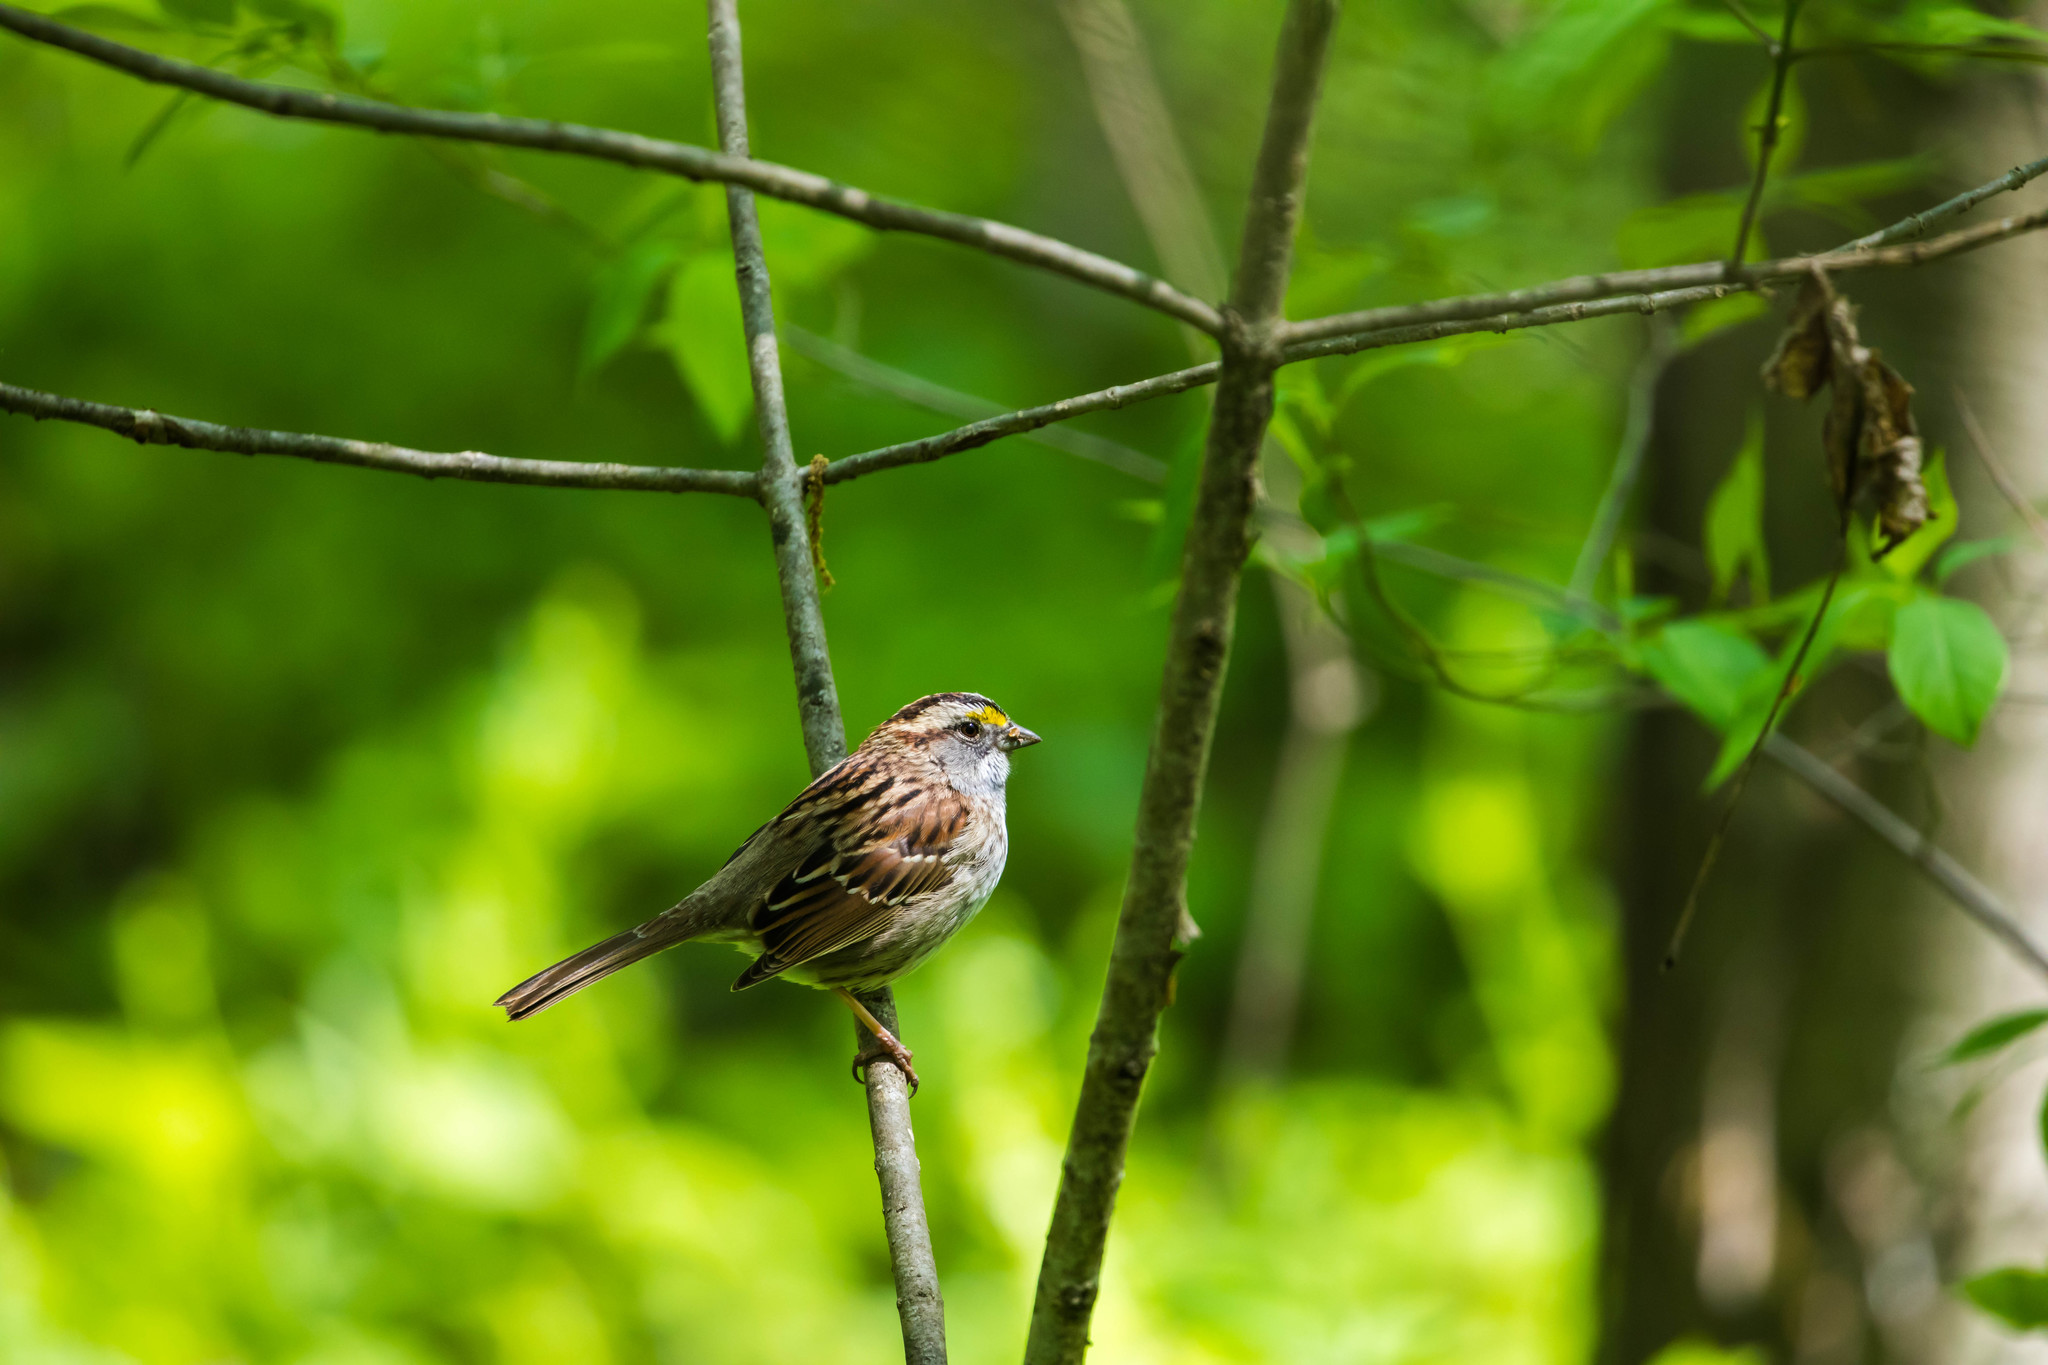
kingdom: Animalia
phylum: Chordata
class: Aves
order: Passeriformes
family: Passerellidae
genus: Zonotrichia
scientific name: Zonotrichia albicollis
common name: White-throated sparrow
